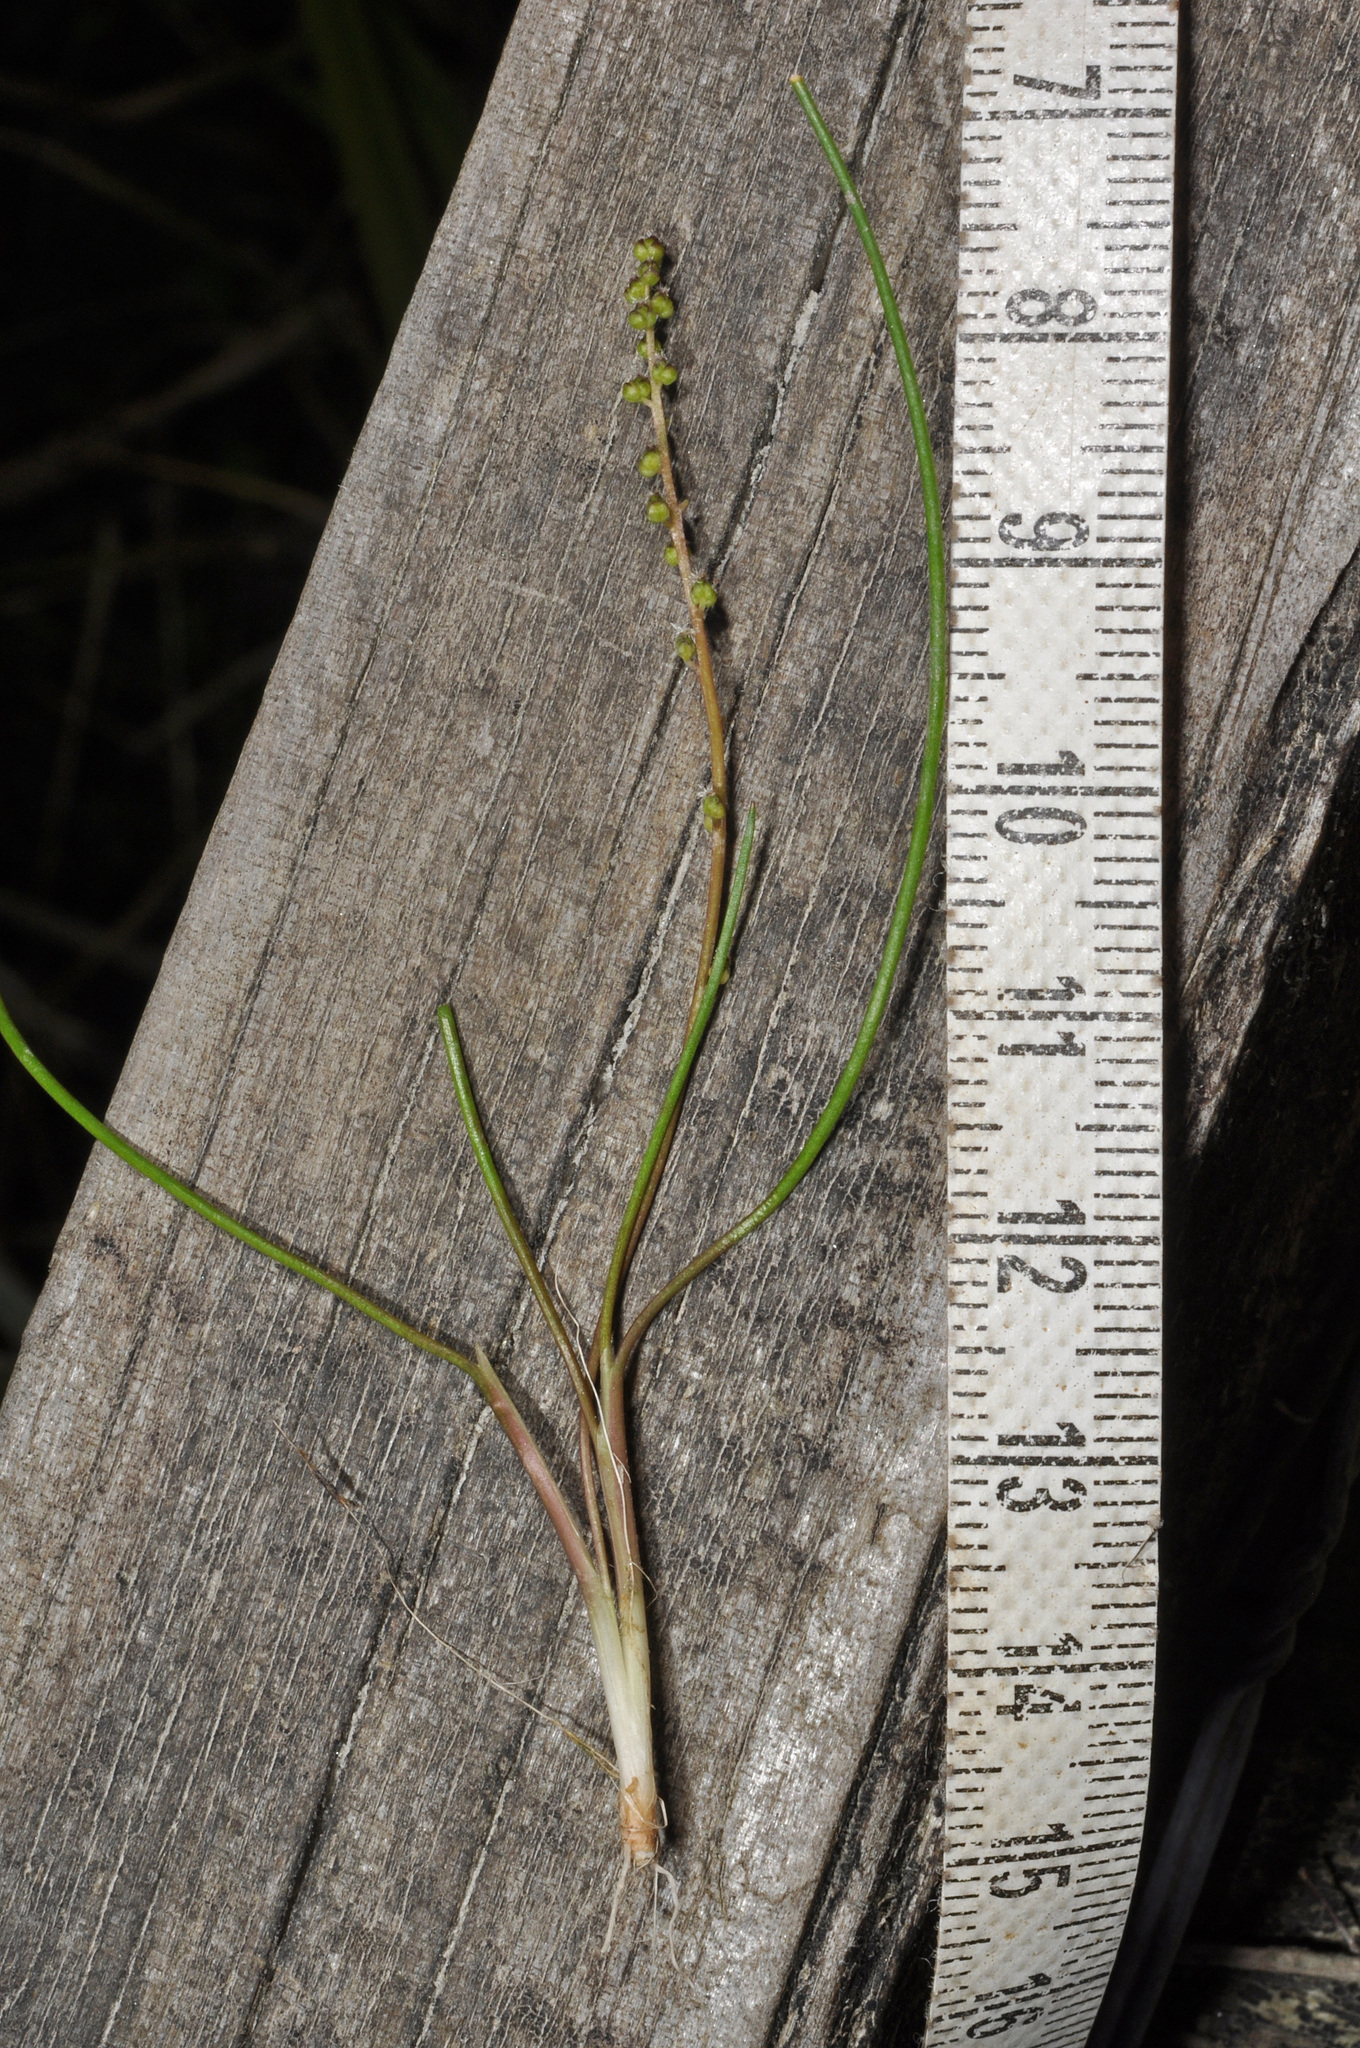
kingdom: Plantae
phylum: Tracheophyta
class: Liliopsida
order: Alismatales
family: Juncaginaceae
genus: Triglochin
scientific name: Triglochin striata
